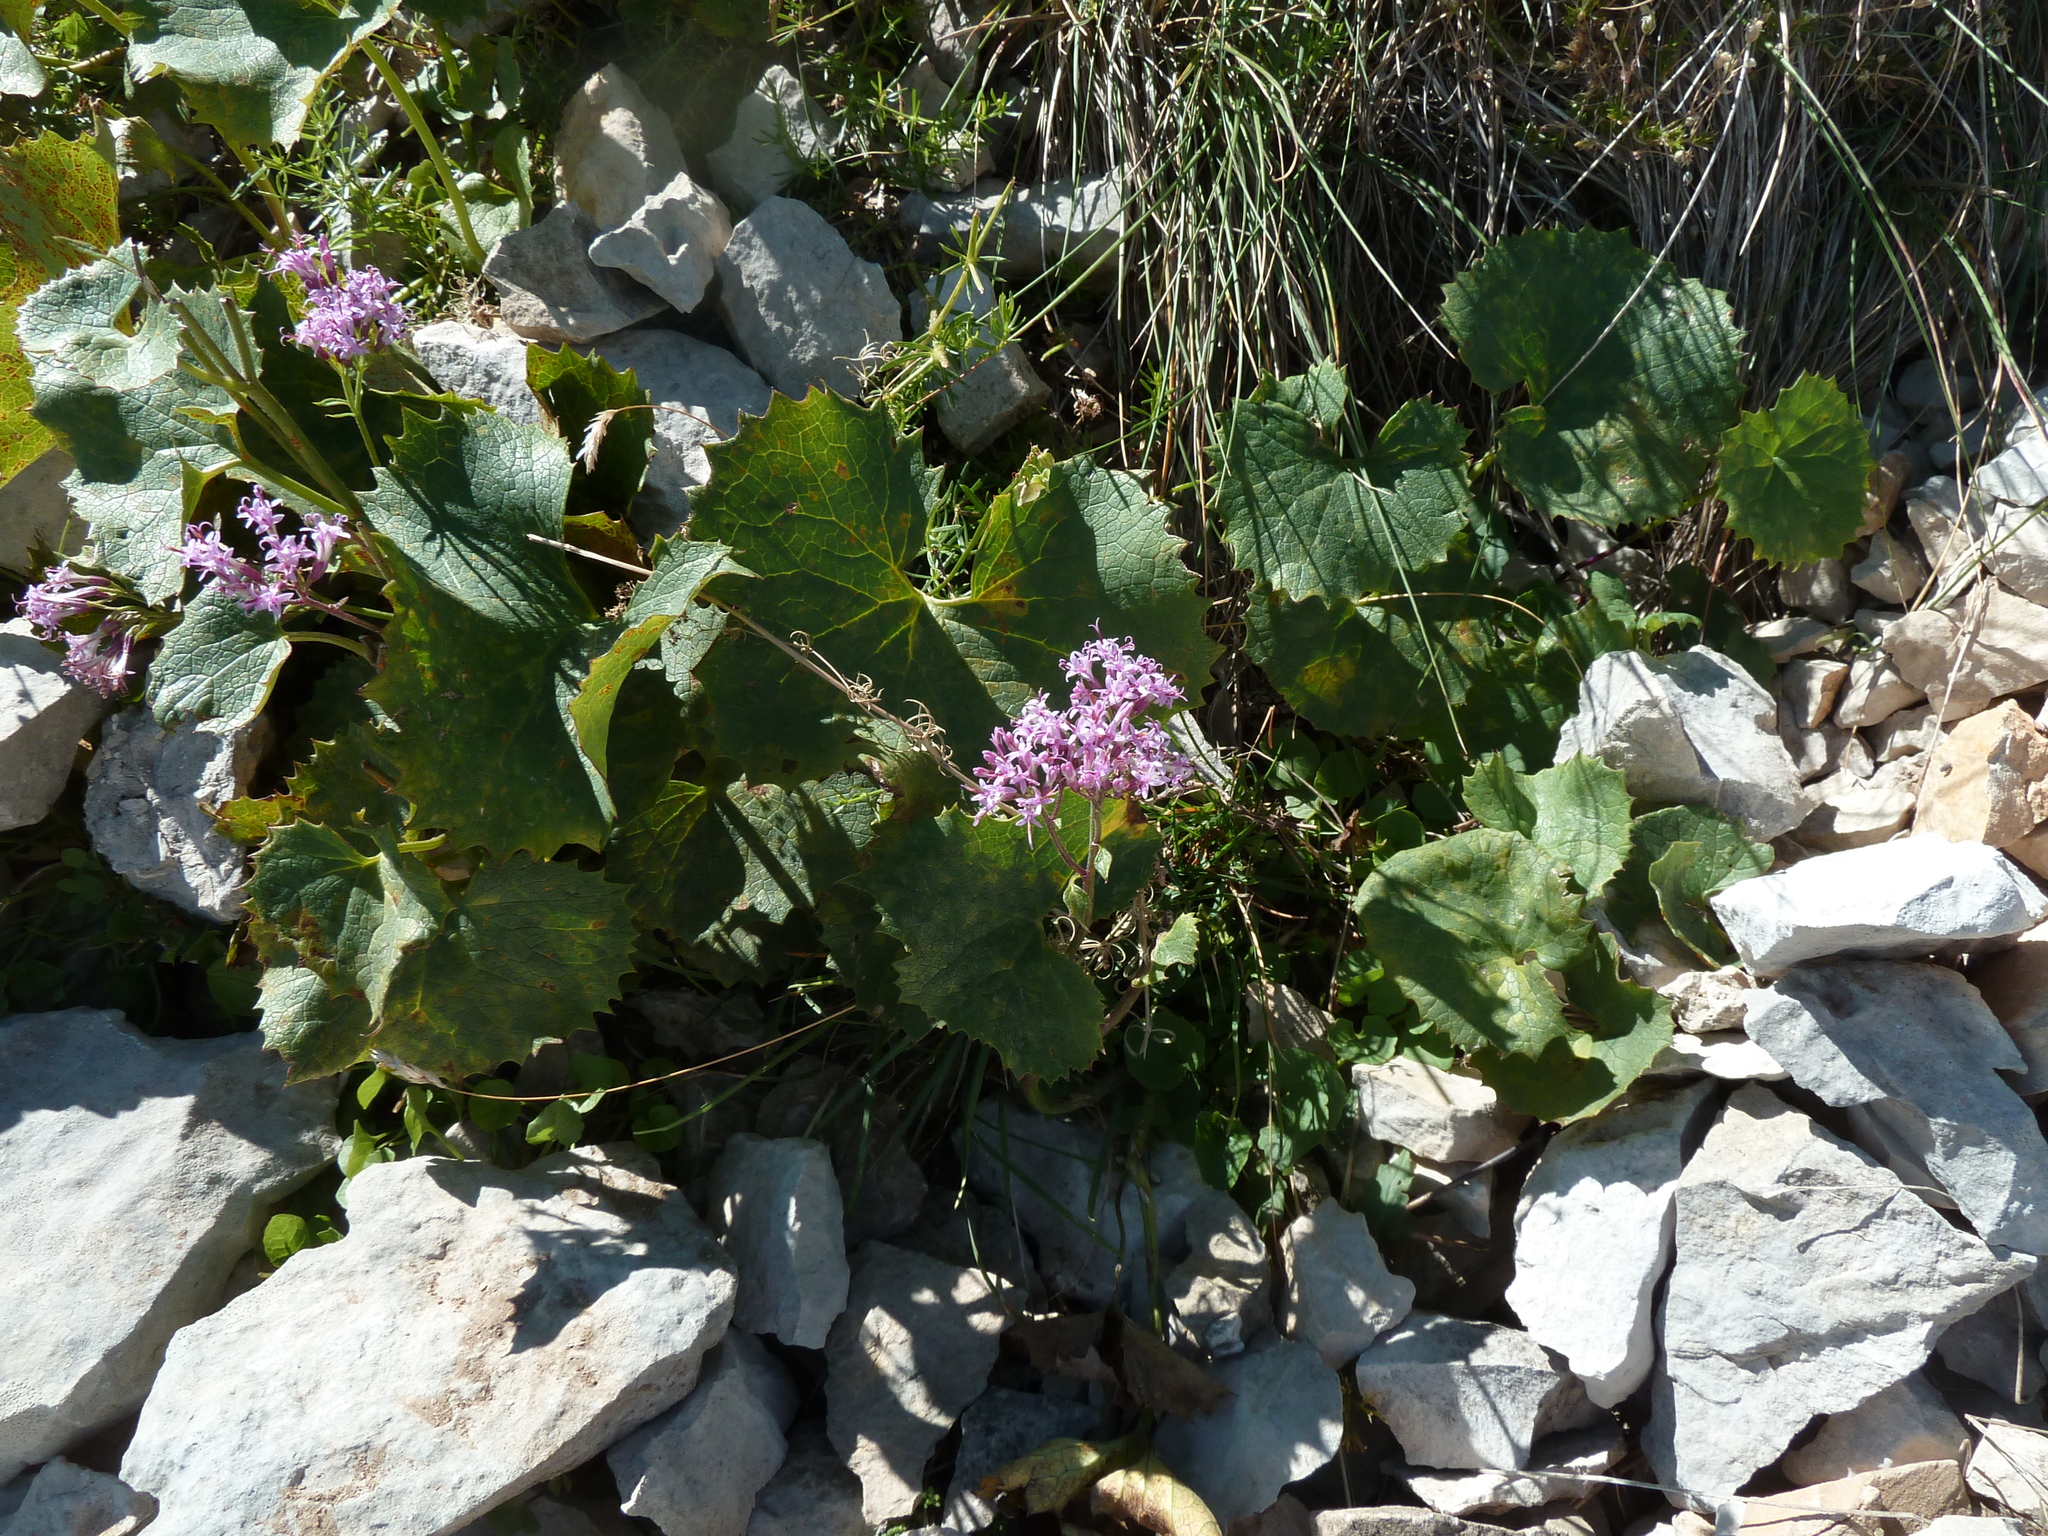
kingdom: Plantae
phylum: Tracheophyta
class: Magnoliopsida
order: Asterales
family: Asteraceae
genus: Adenostyles
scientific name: Adenostyles alpina
